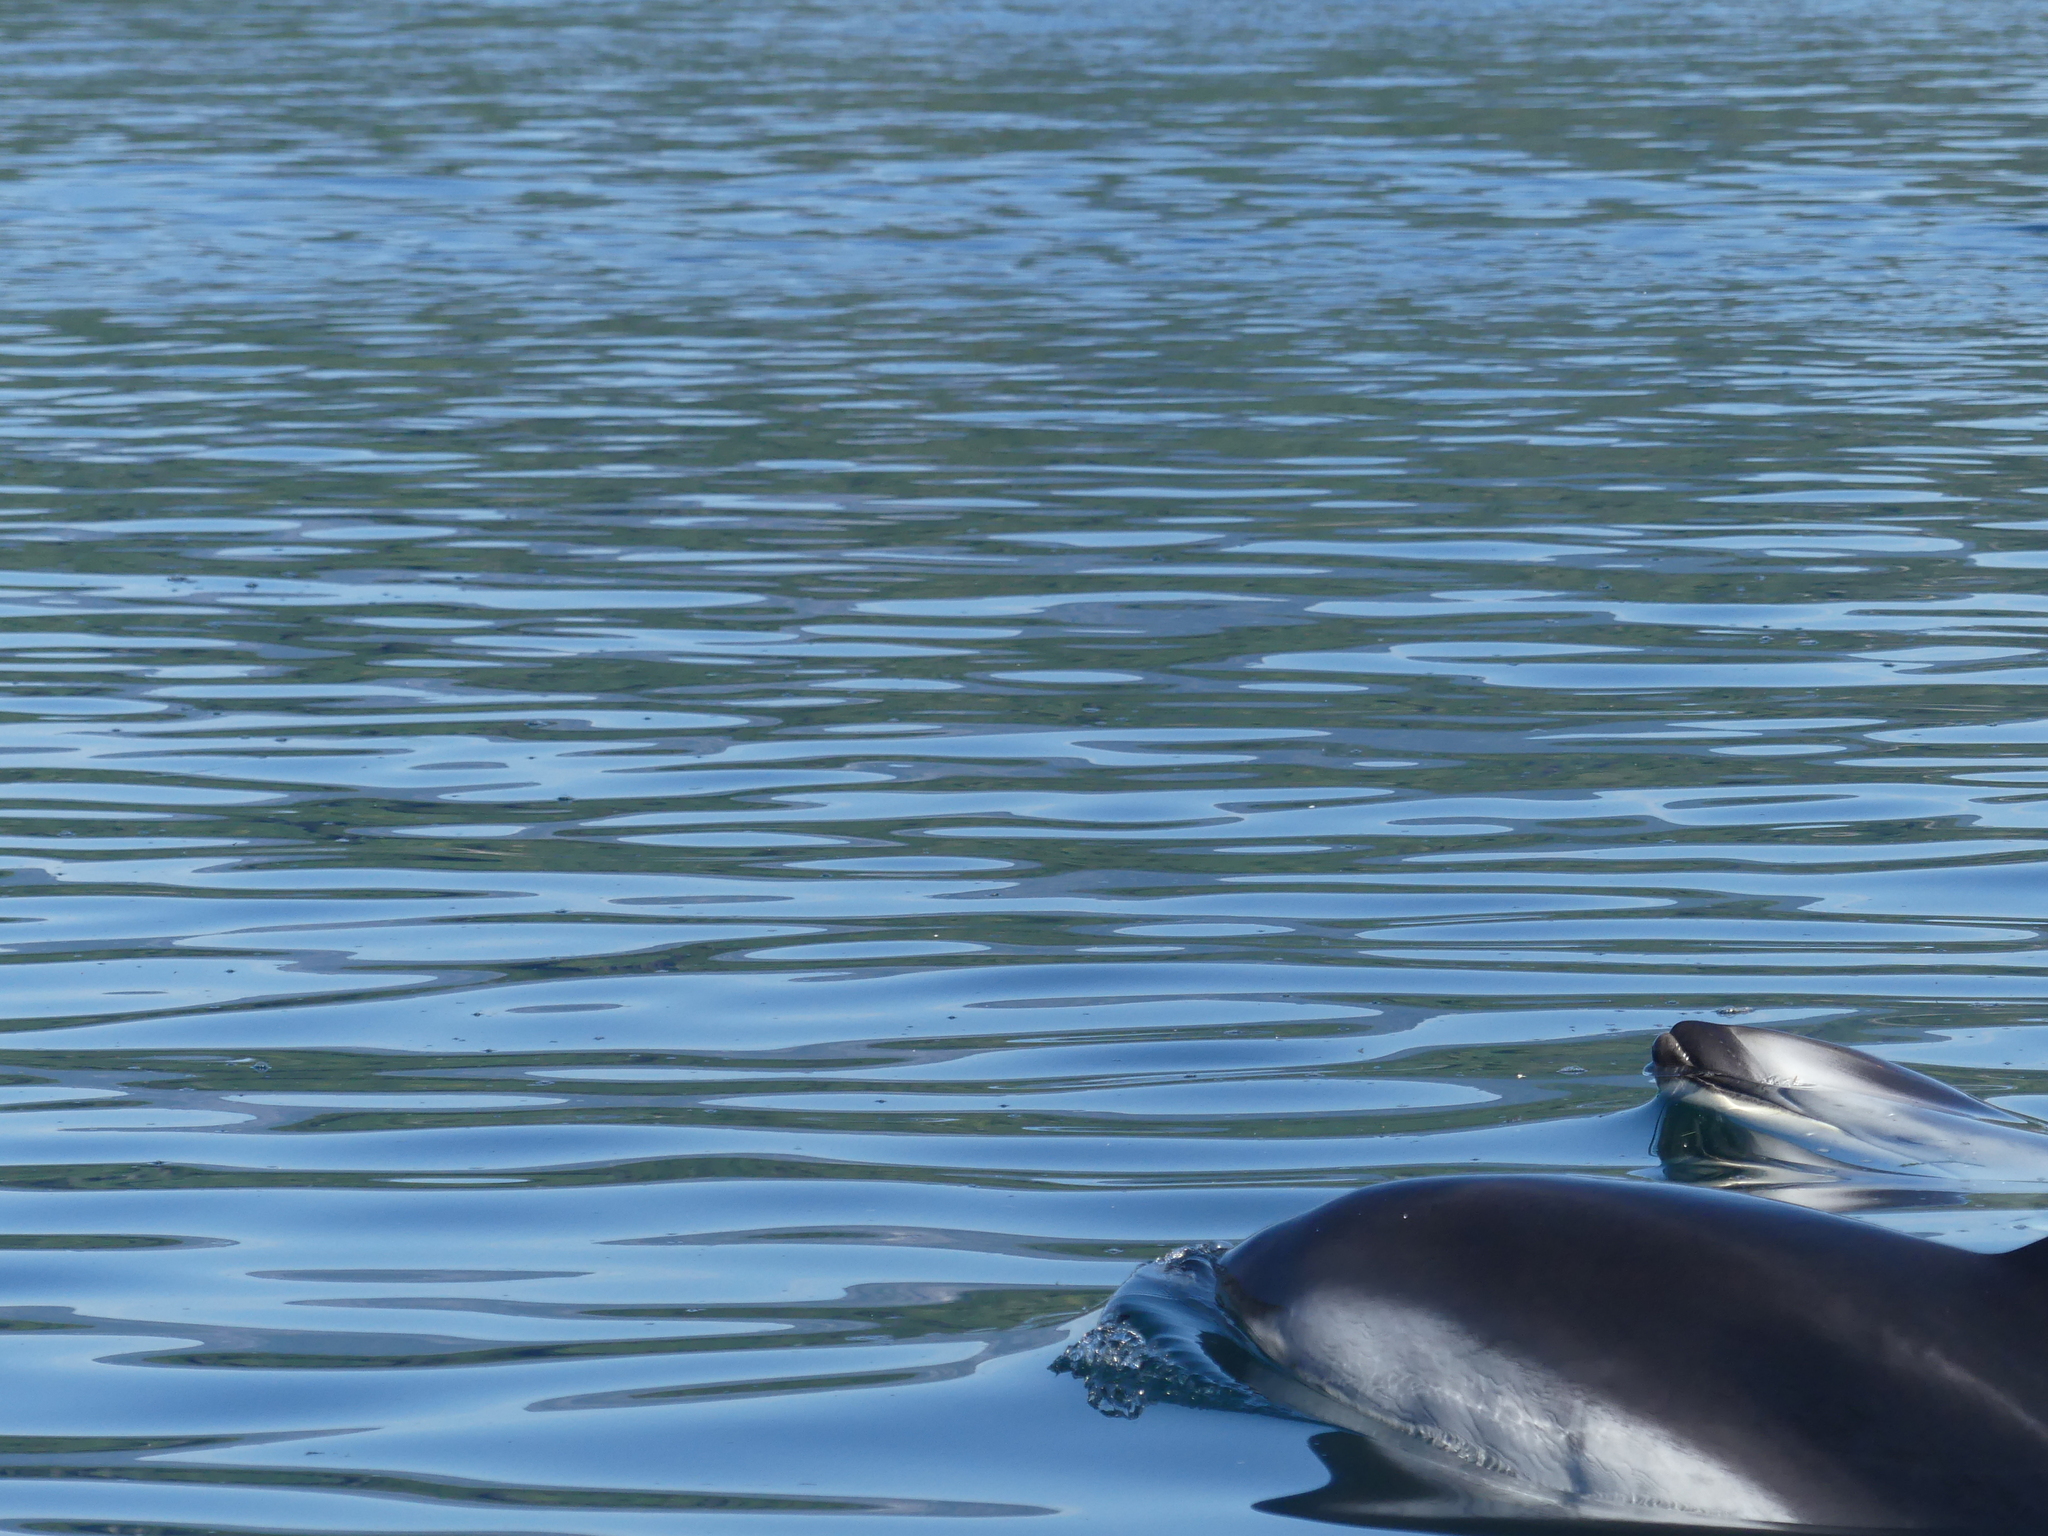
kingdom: Animalia
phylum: Chordata
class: Mammalia
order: Cetacea
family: Delphinidae
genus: Lagenorhynchus
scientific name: Lagenorhynchus obliquidens
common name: Pacific white-sided dolphin
